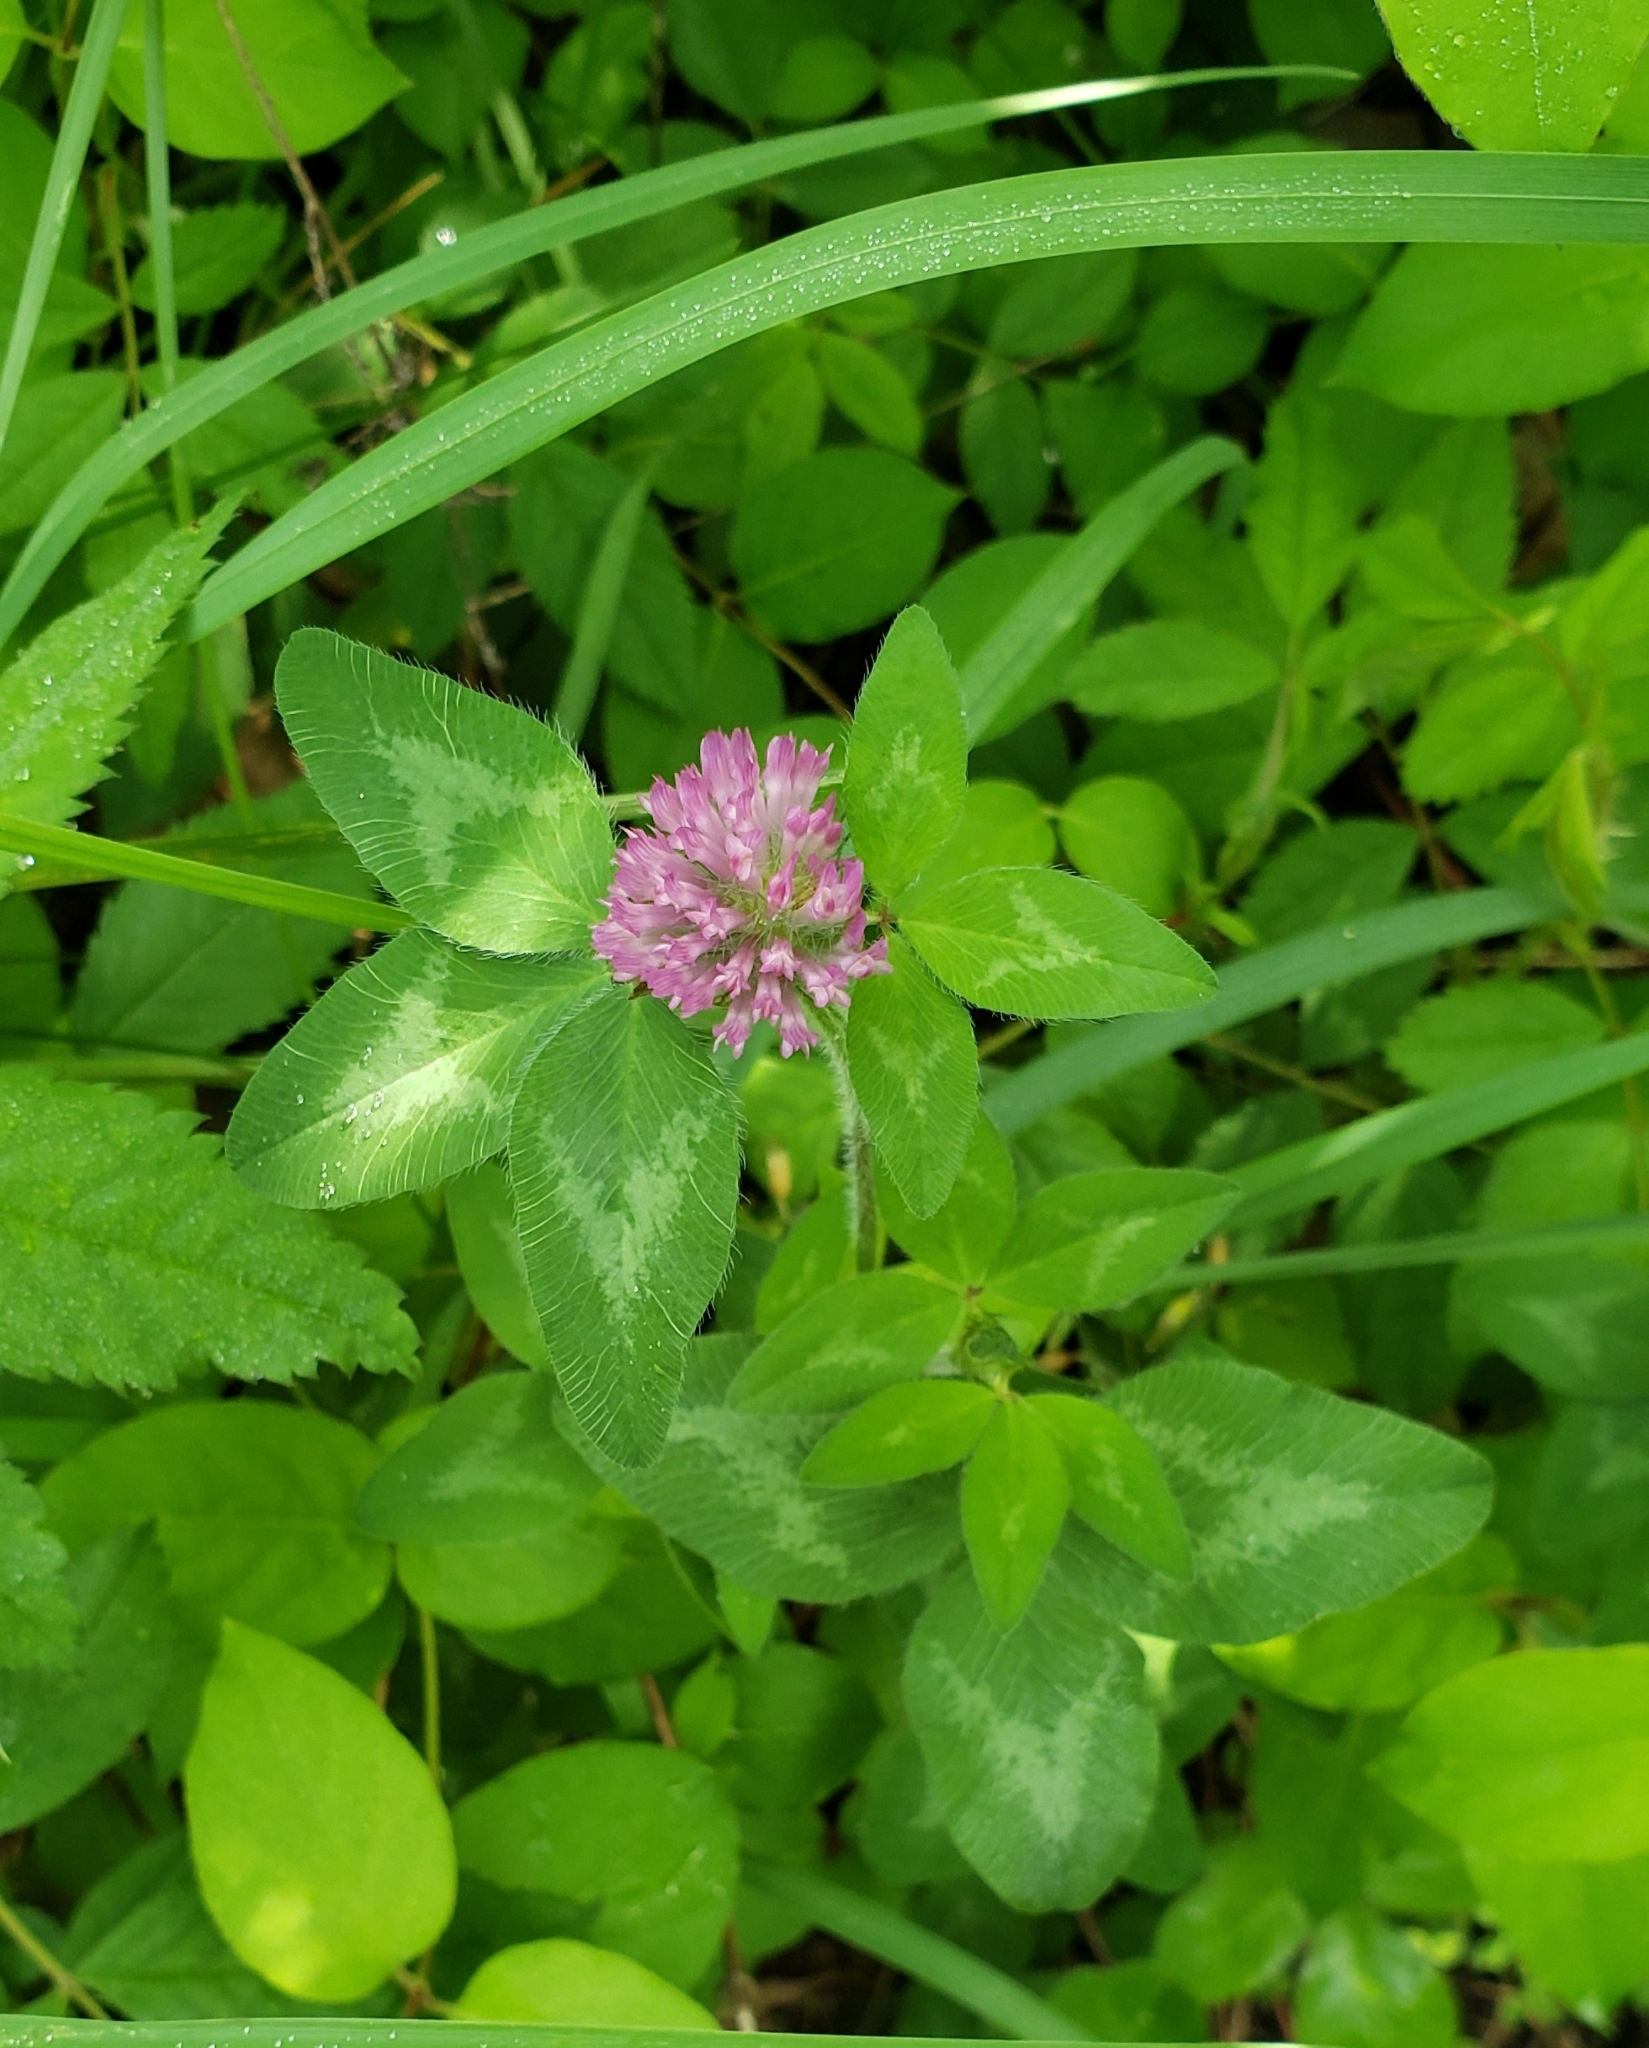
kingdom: Plantae
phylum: Tracheophyta
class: Magnoliopsida
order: Fabales
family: Fabaceae
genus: Trifolium
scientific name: Trifolium pratense
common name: Red clover
